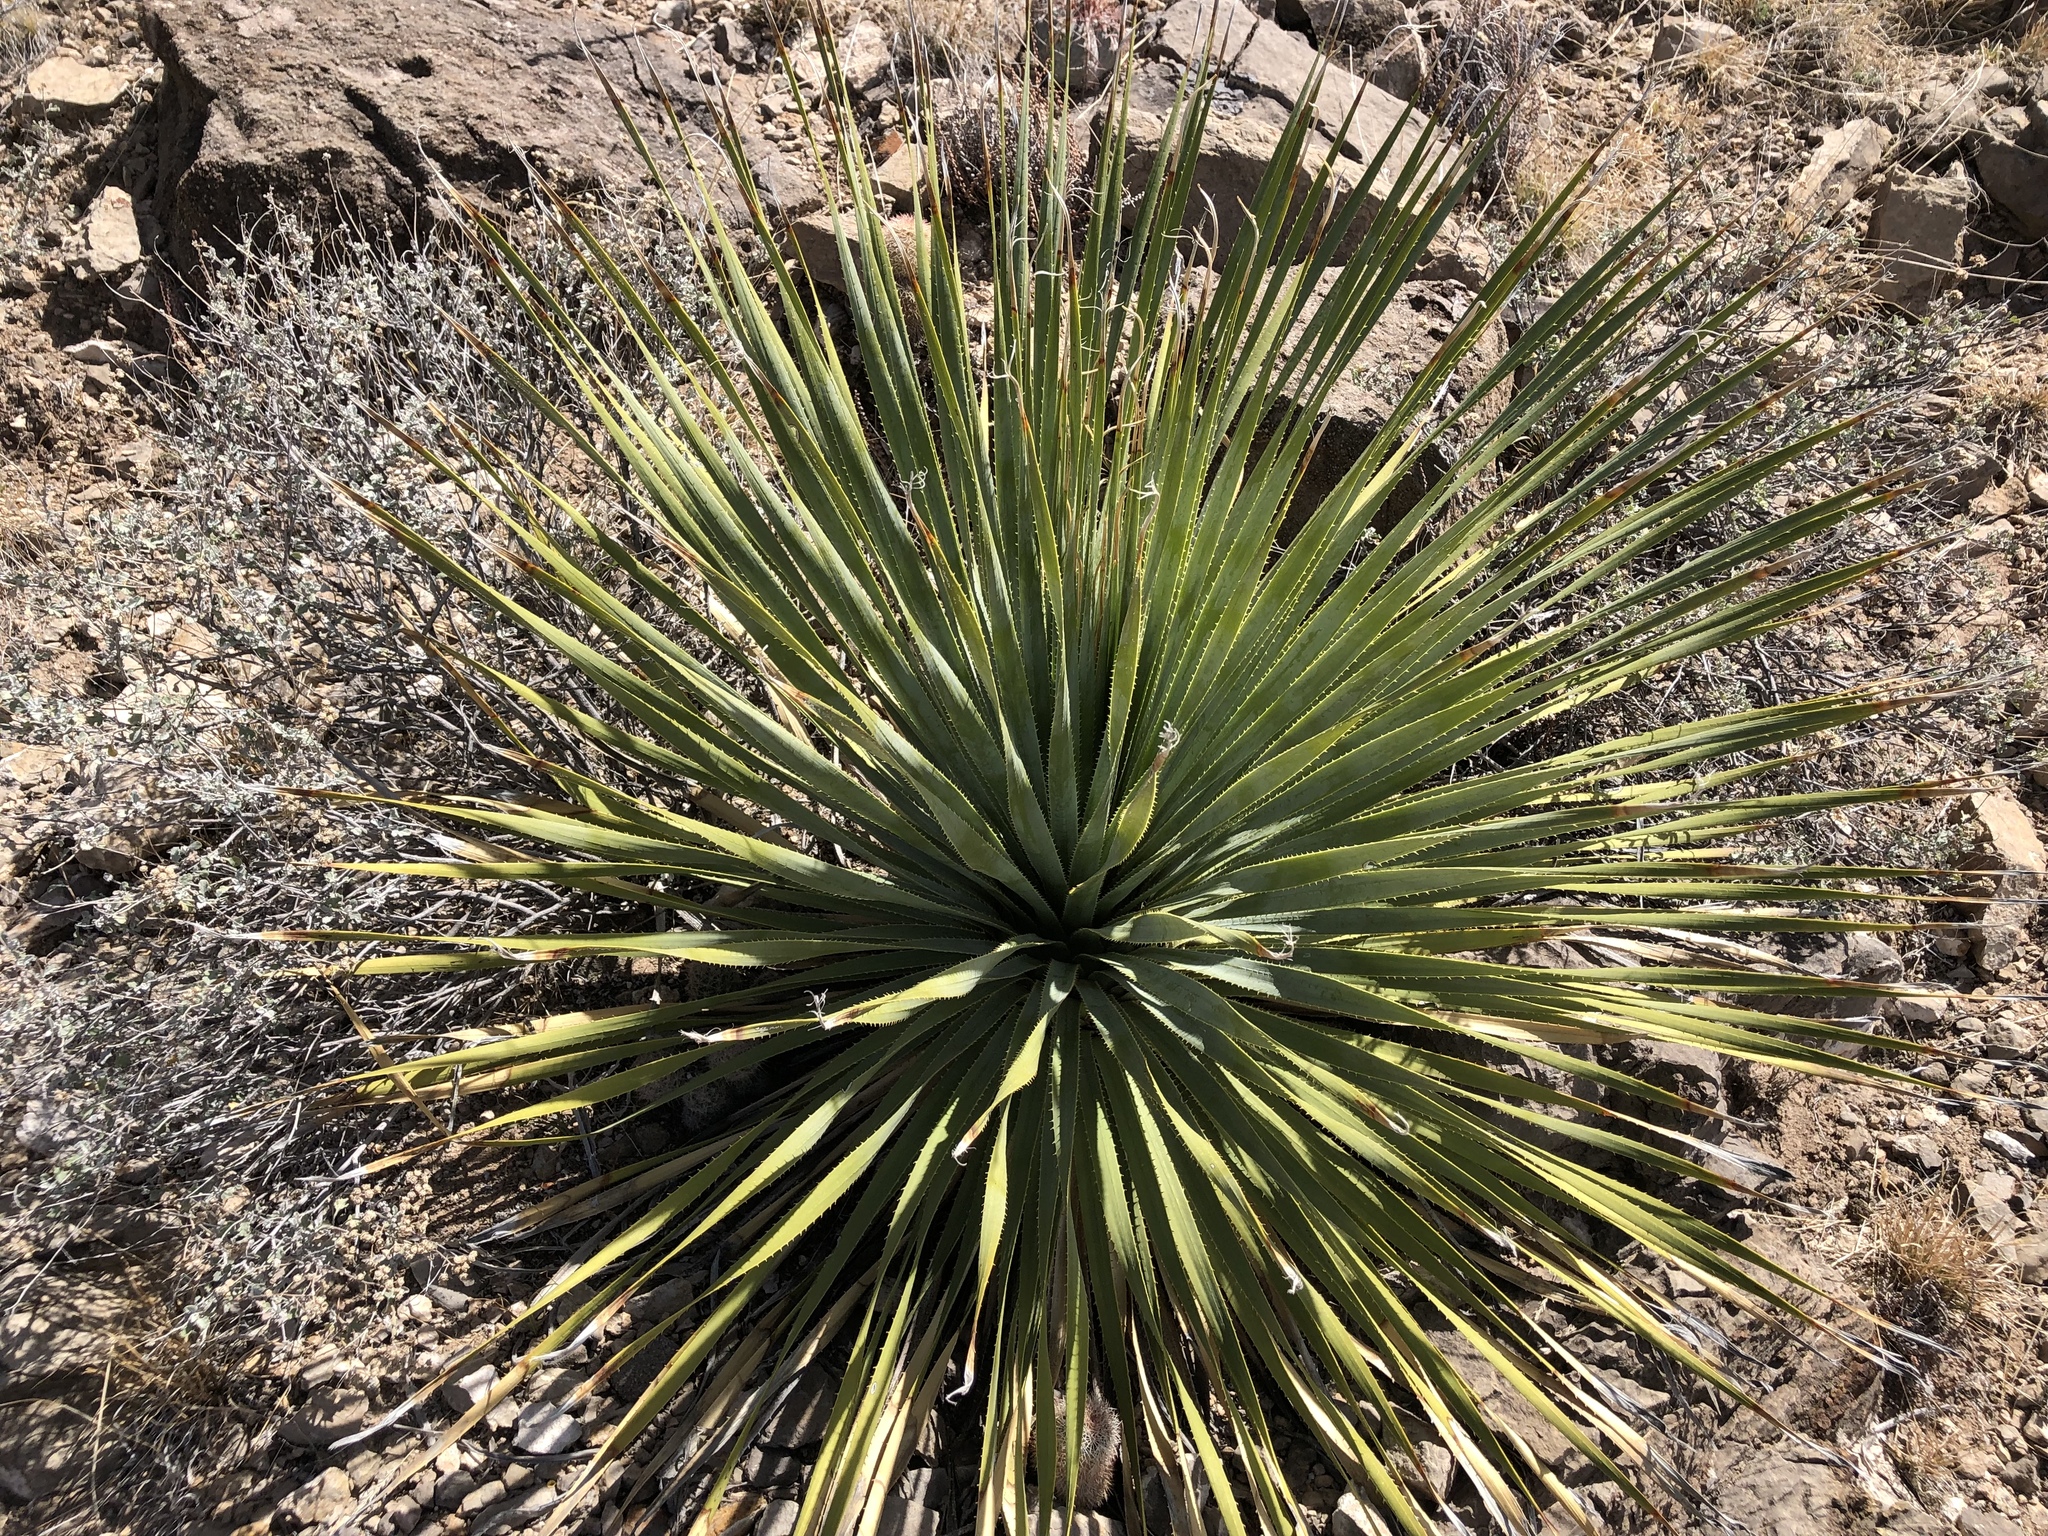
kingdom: Plantae
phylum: Tracheophyta
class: Liliopsida
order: Asparagales
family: Asparagaceae
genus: Dasylirion
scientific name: Dasylirion wheeleri
